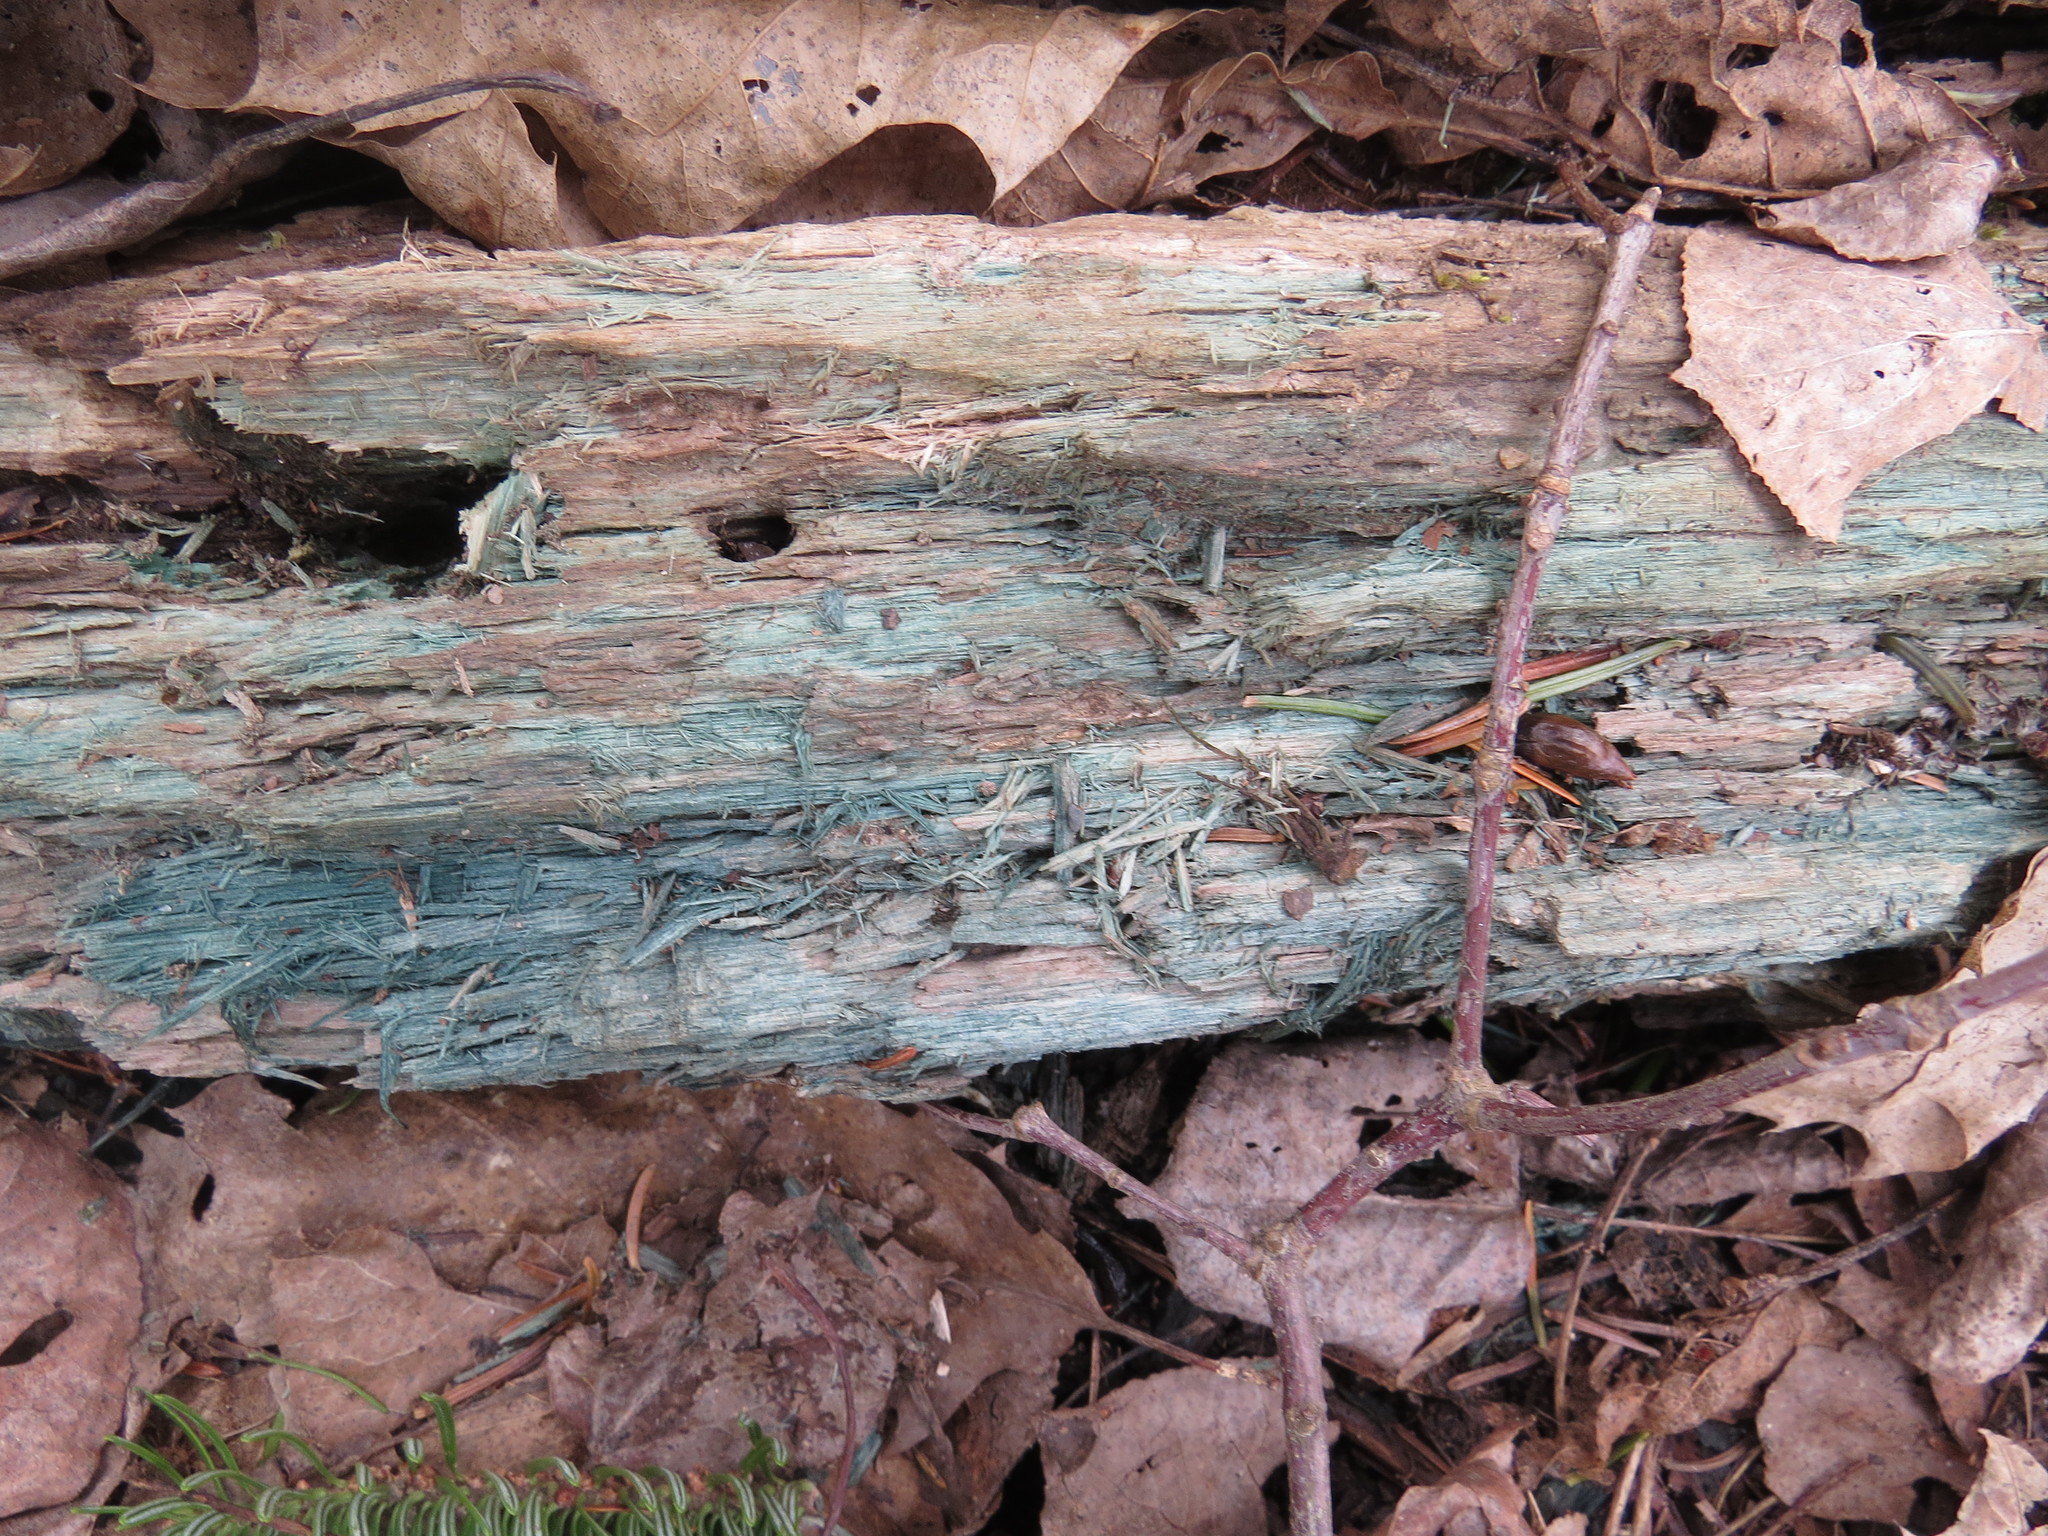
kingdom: Fungi
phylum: Ascomycota
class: Leotiomycetes
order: Helotiales
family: Chlorociboriaceae
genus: Chlorociboria
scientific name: Chlorociboria
